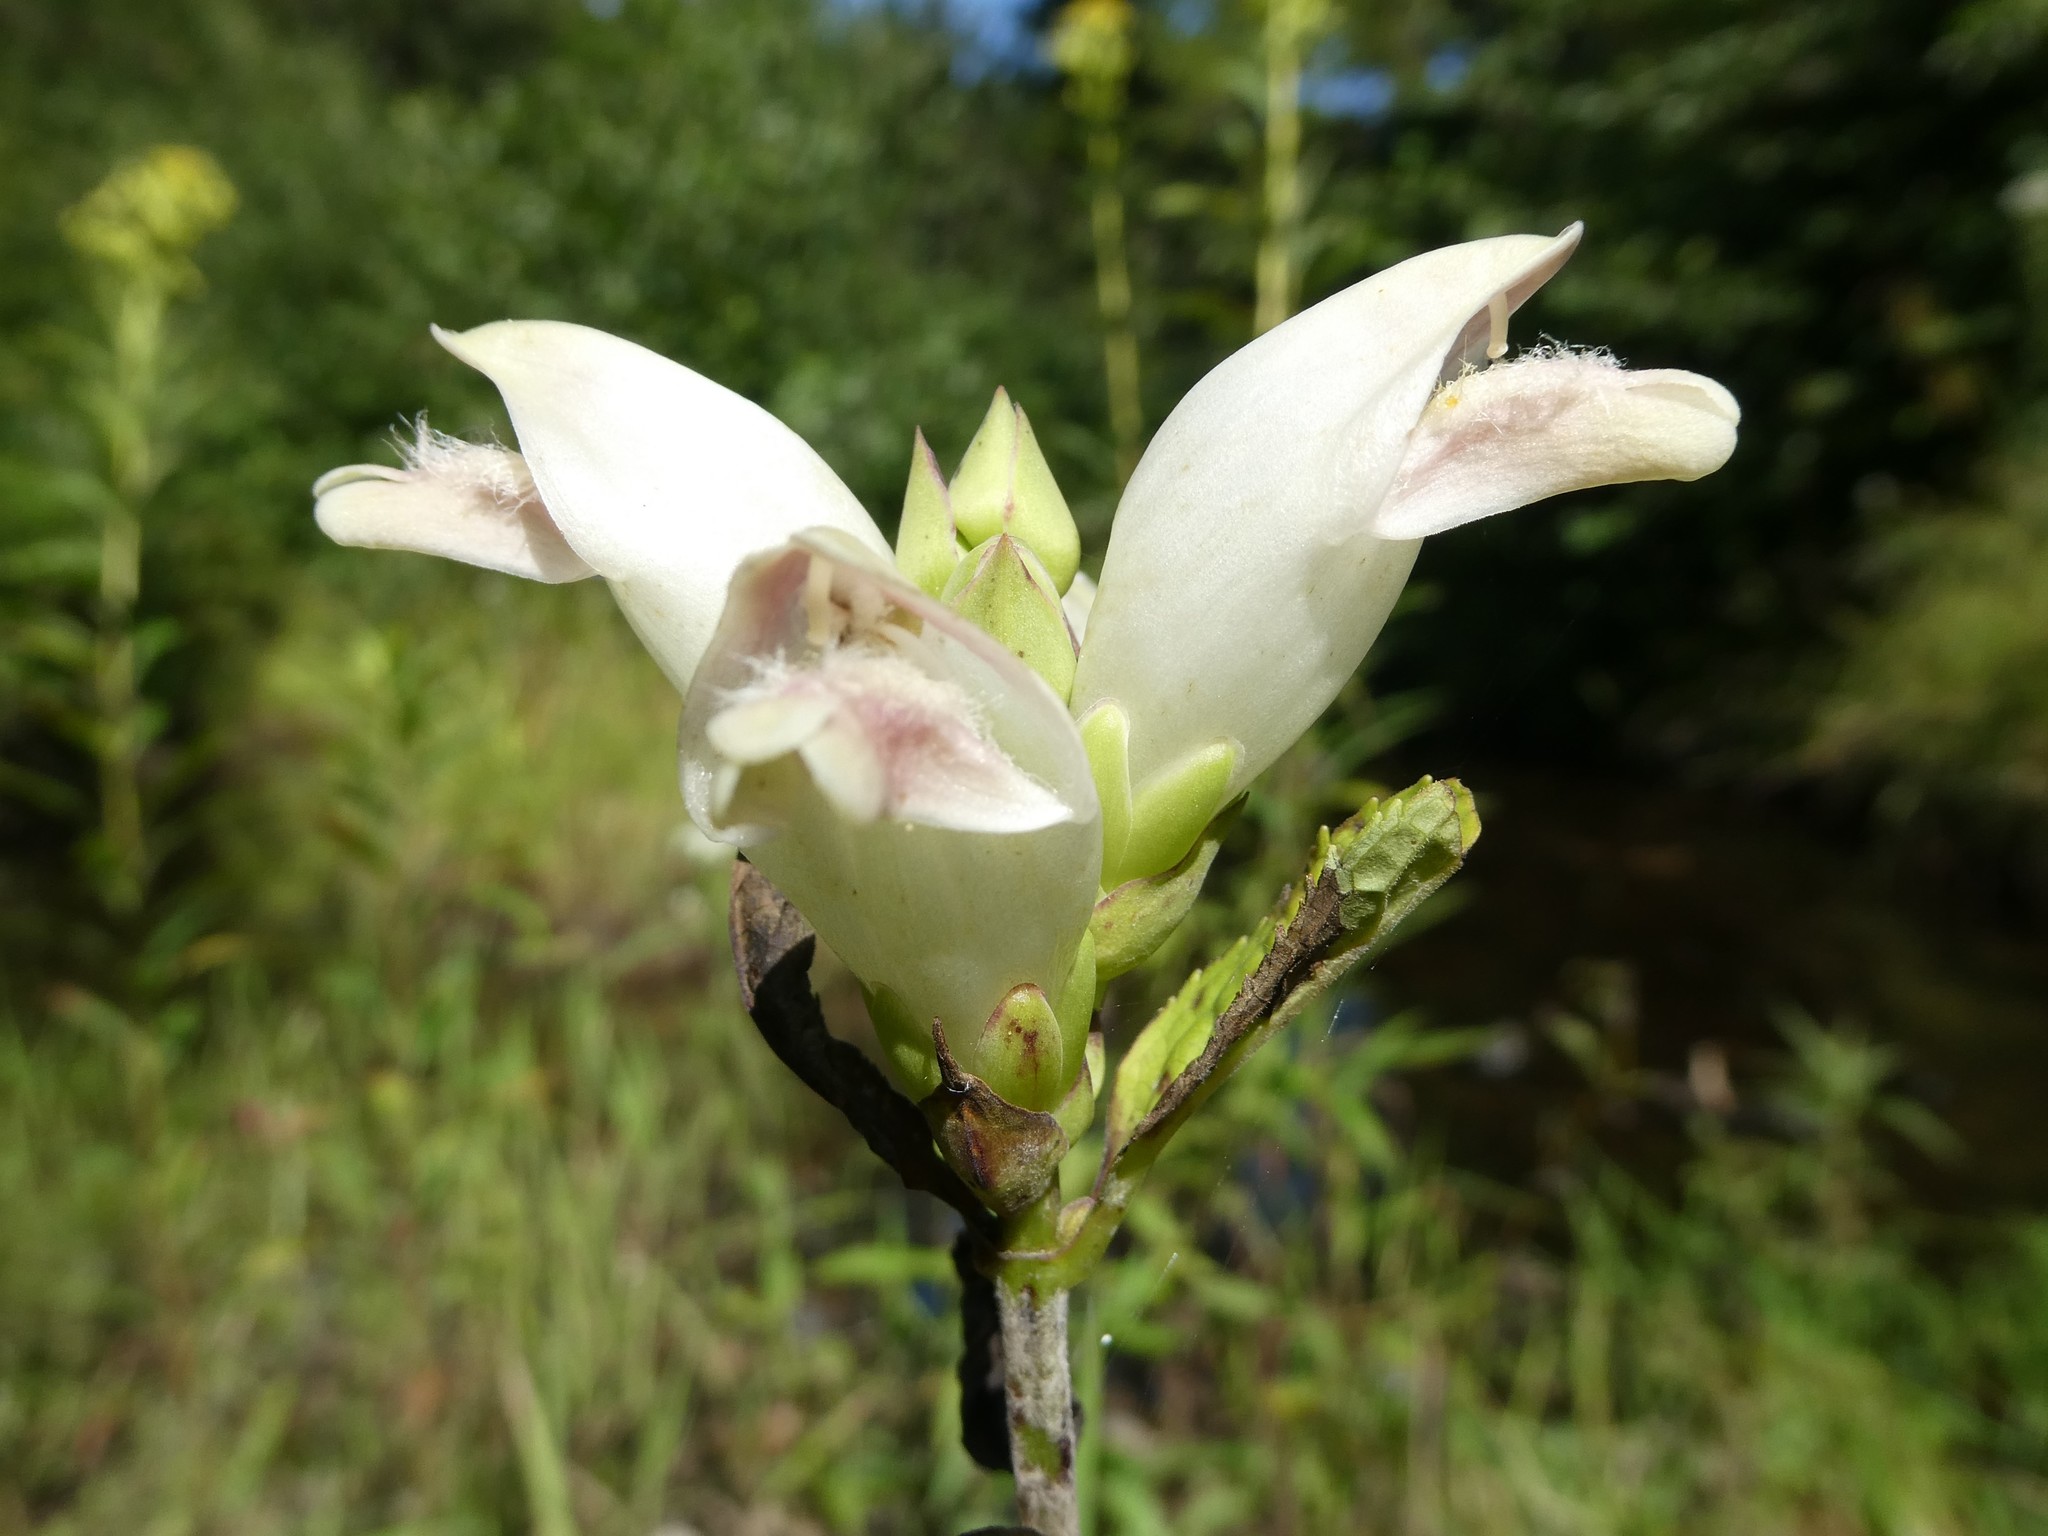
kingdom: Plantae
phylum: Tracheophyta
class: Magnoliopsida
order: Lamiales
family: Plantaginaceae
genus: Chelone
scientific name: Chelone glabra
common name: Snakehead
